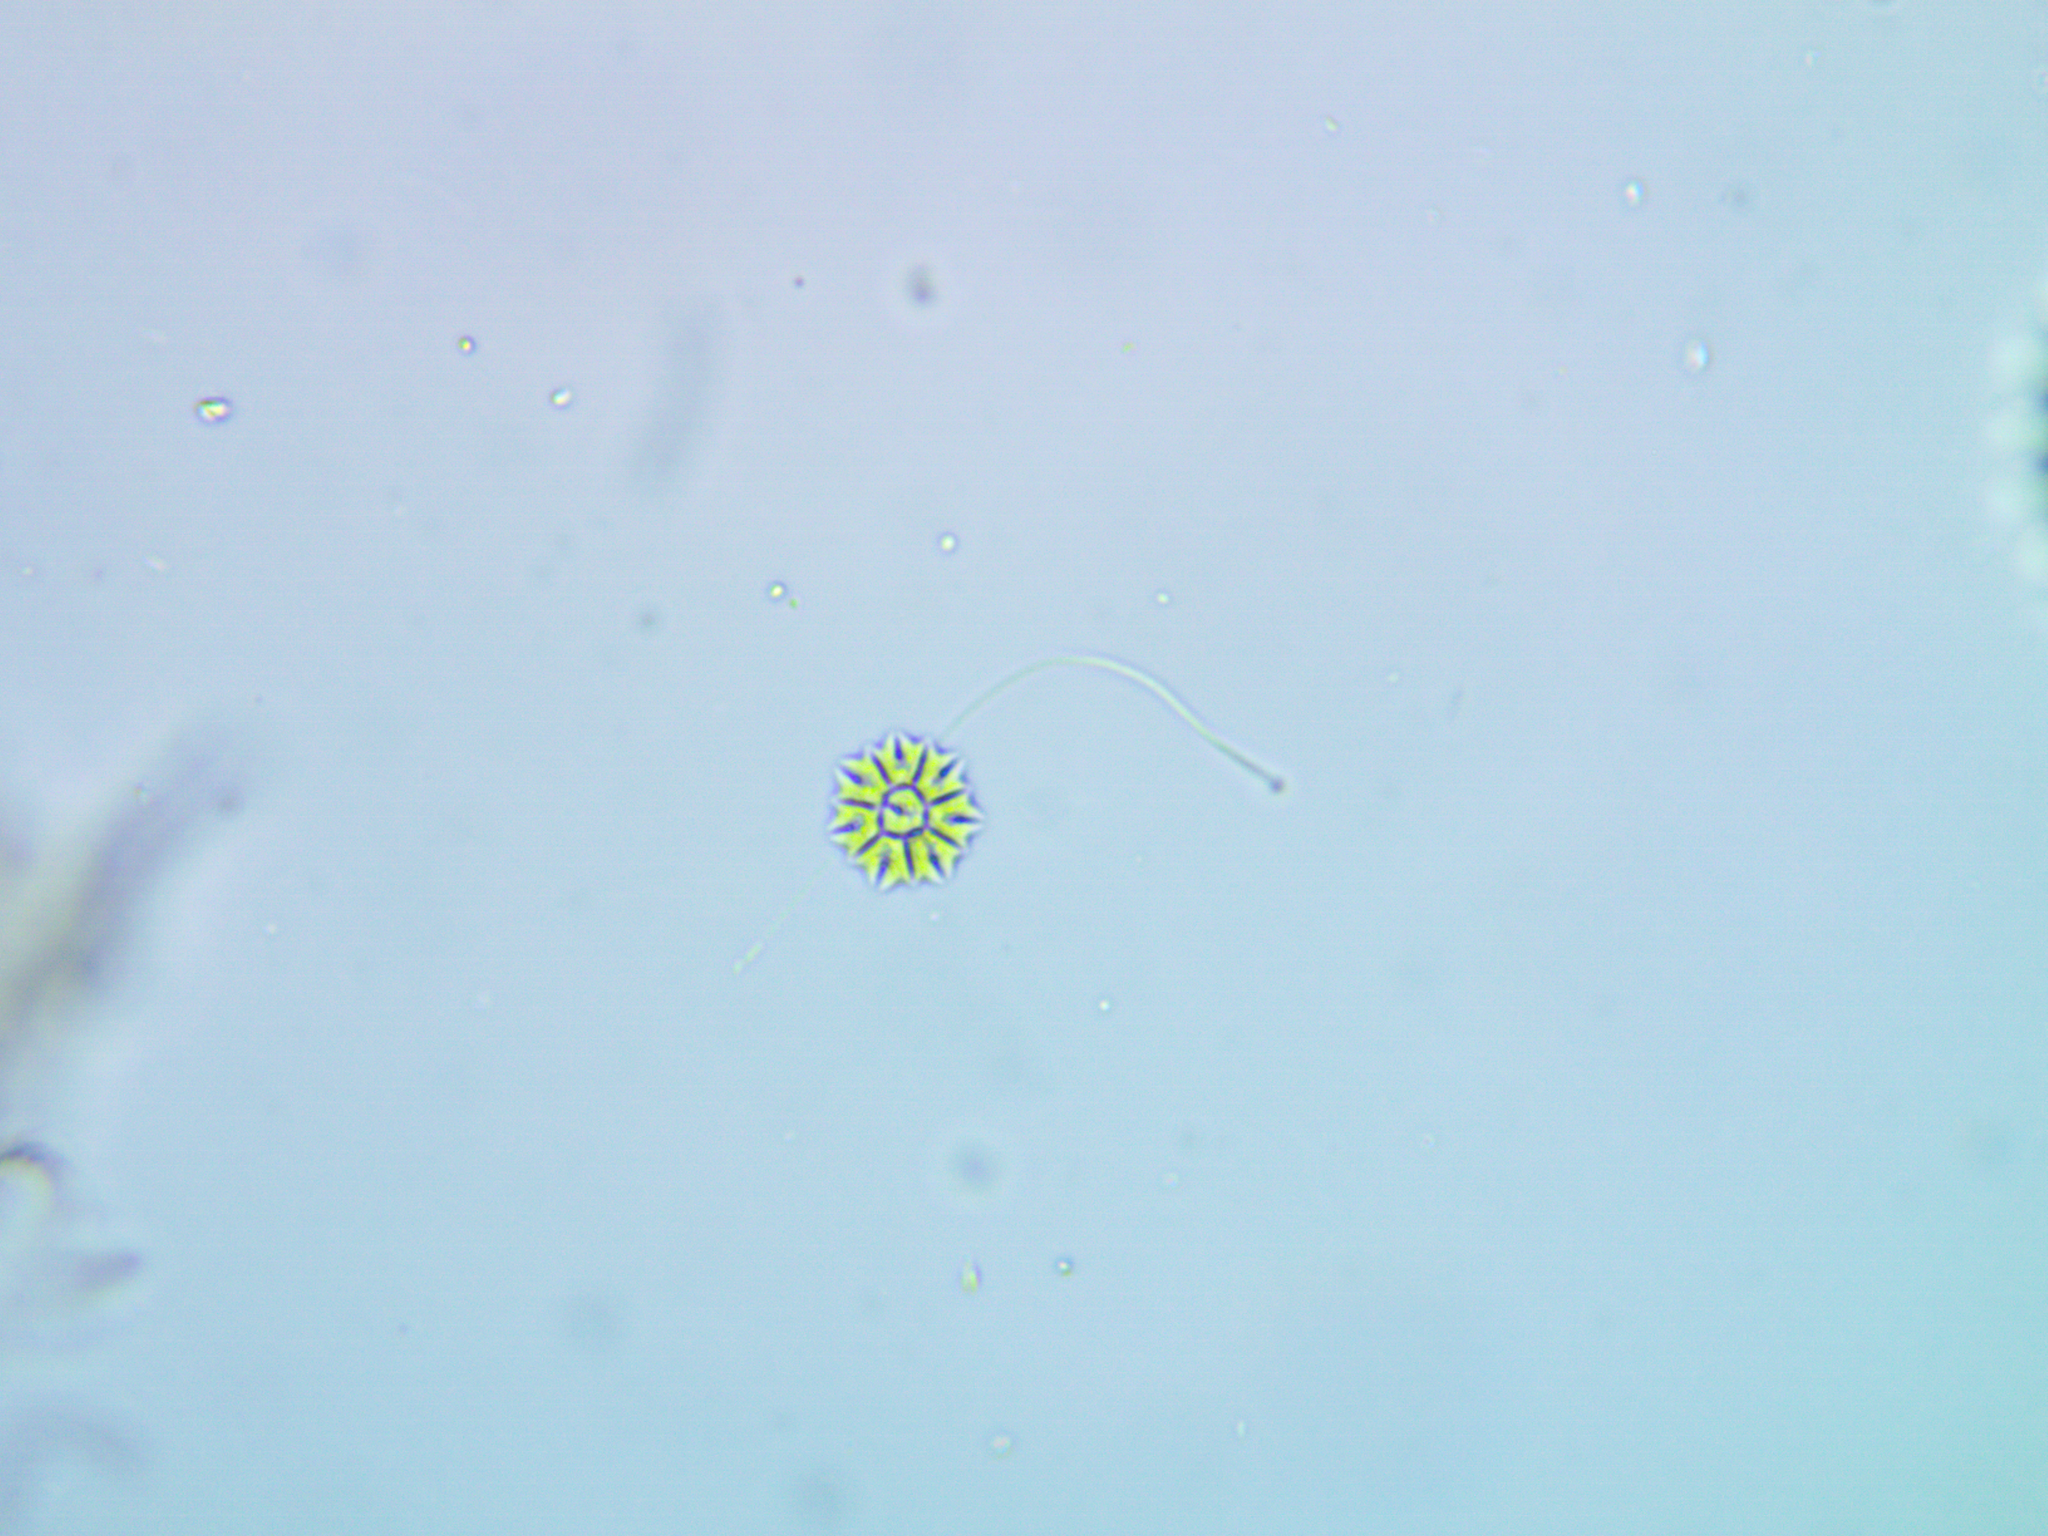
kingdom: Plantae
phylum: Chlorophyta
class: Chlorophyceae
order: Sphaeropleales
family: Hydrodictyaceae
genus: Stauridium
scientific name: Stauridium tetras
